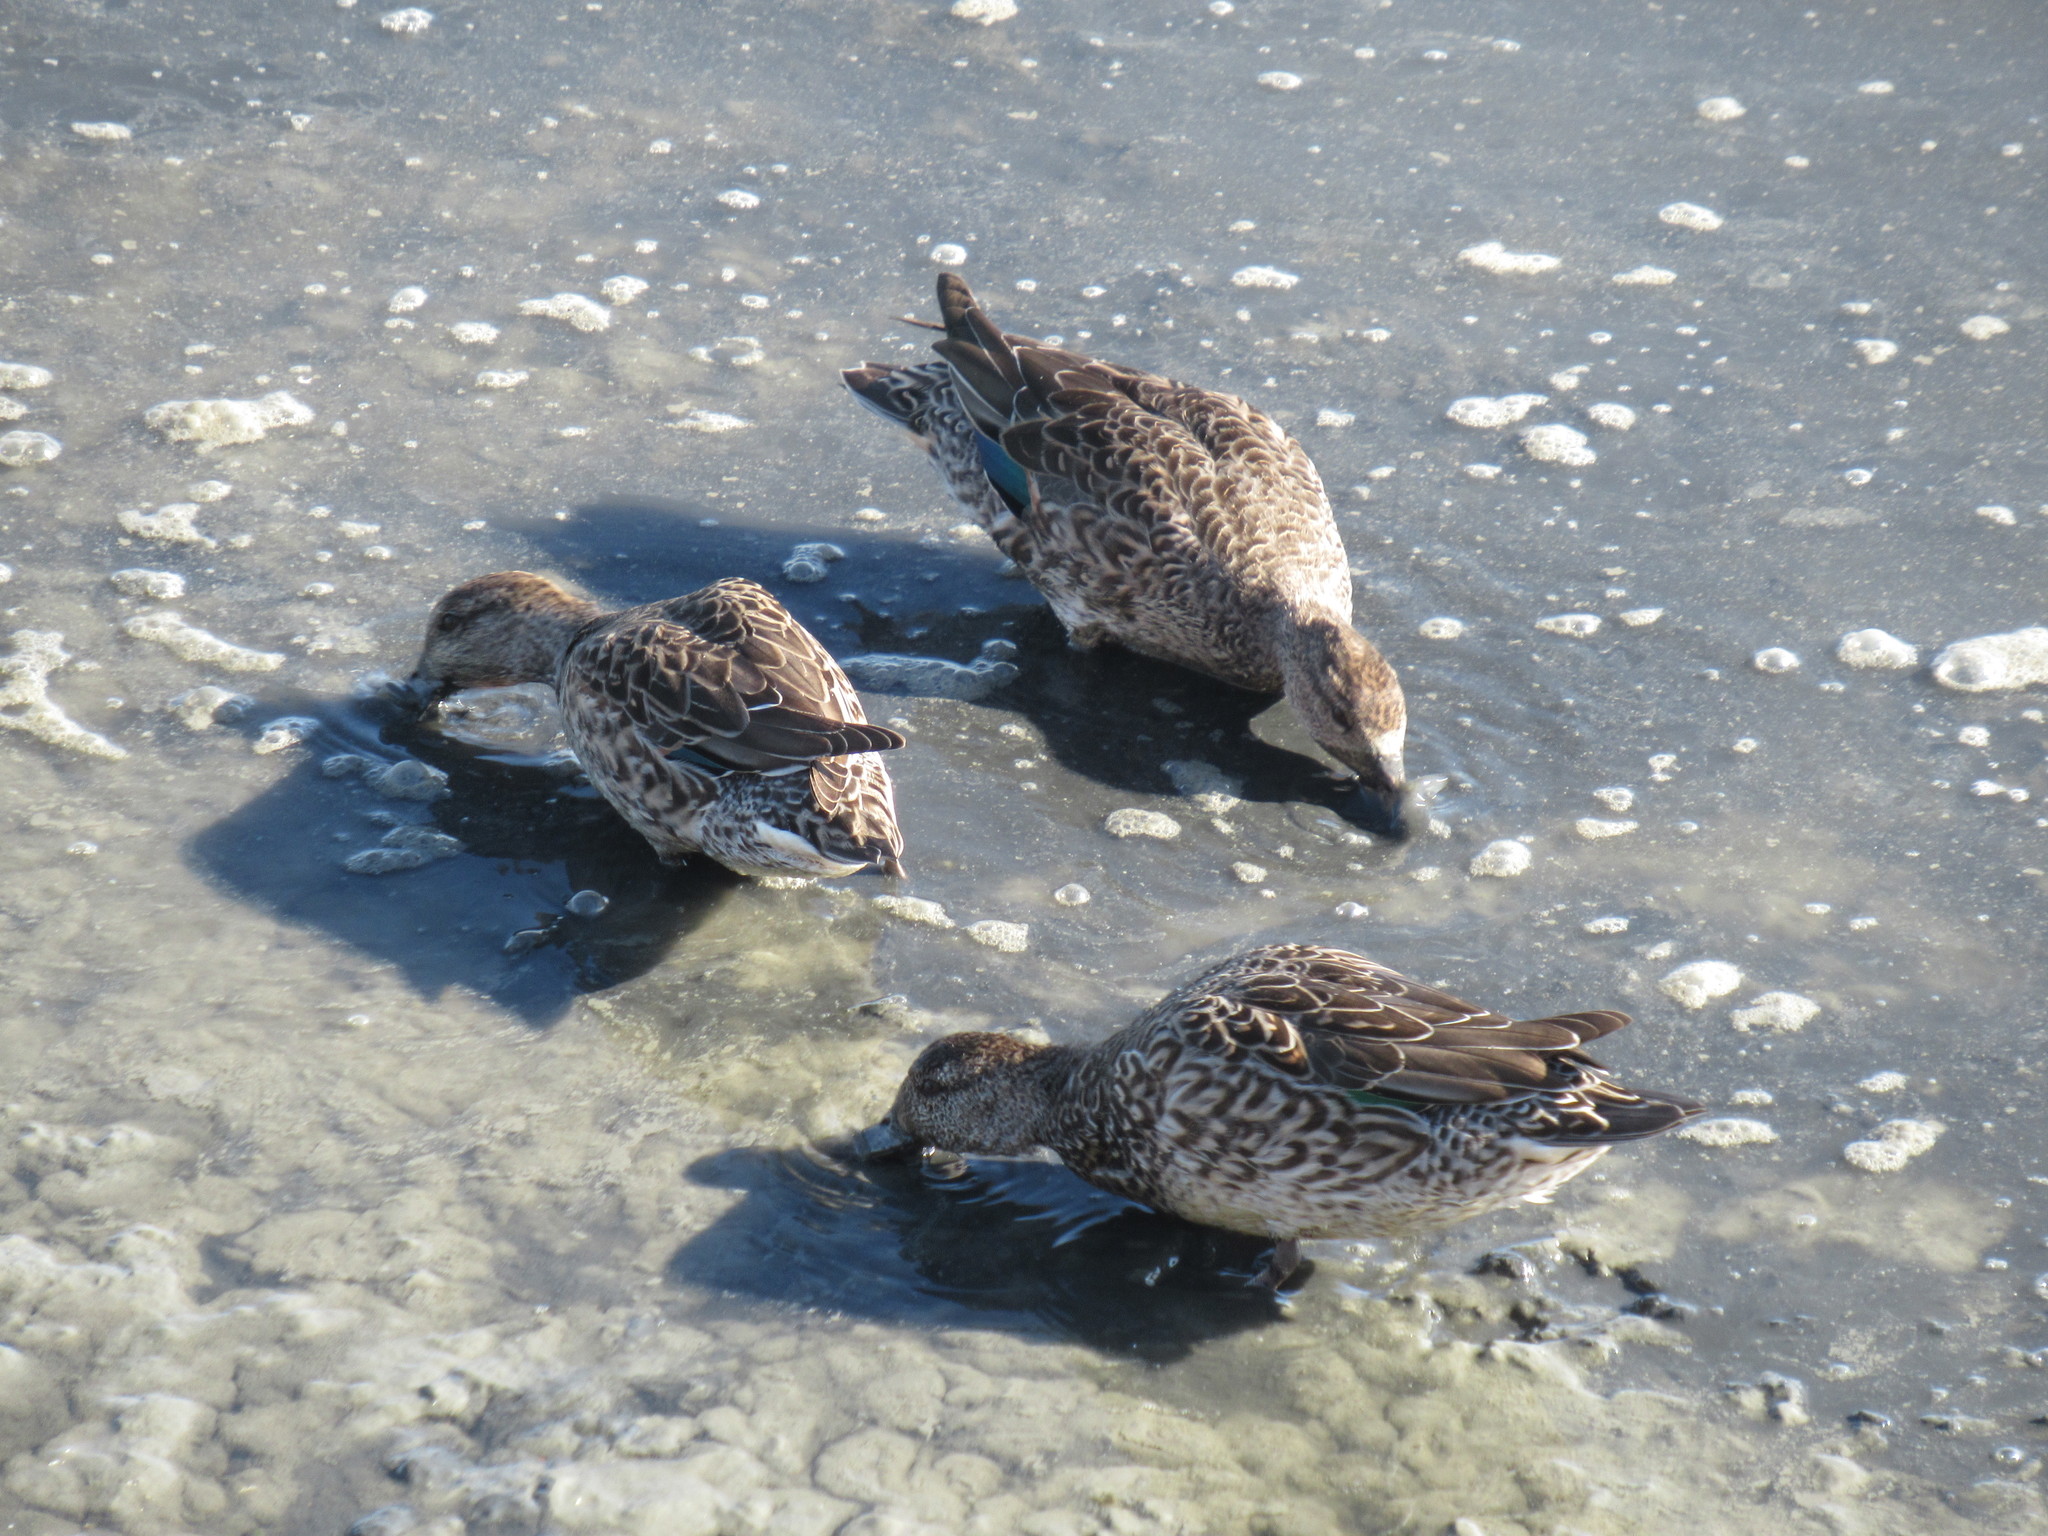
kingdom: Animalia
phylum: Chordata
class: Aves
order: Anseriformes
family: Anatidae
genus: Anas
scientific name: Anas crecca
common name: Eurasian teal
